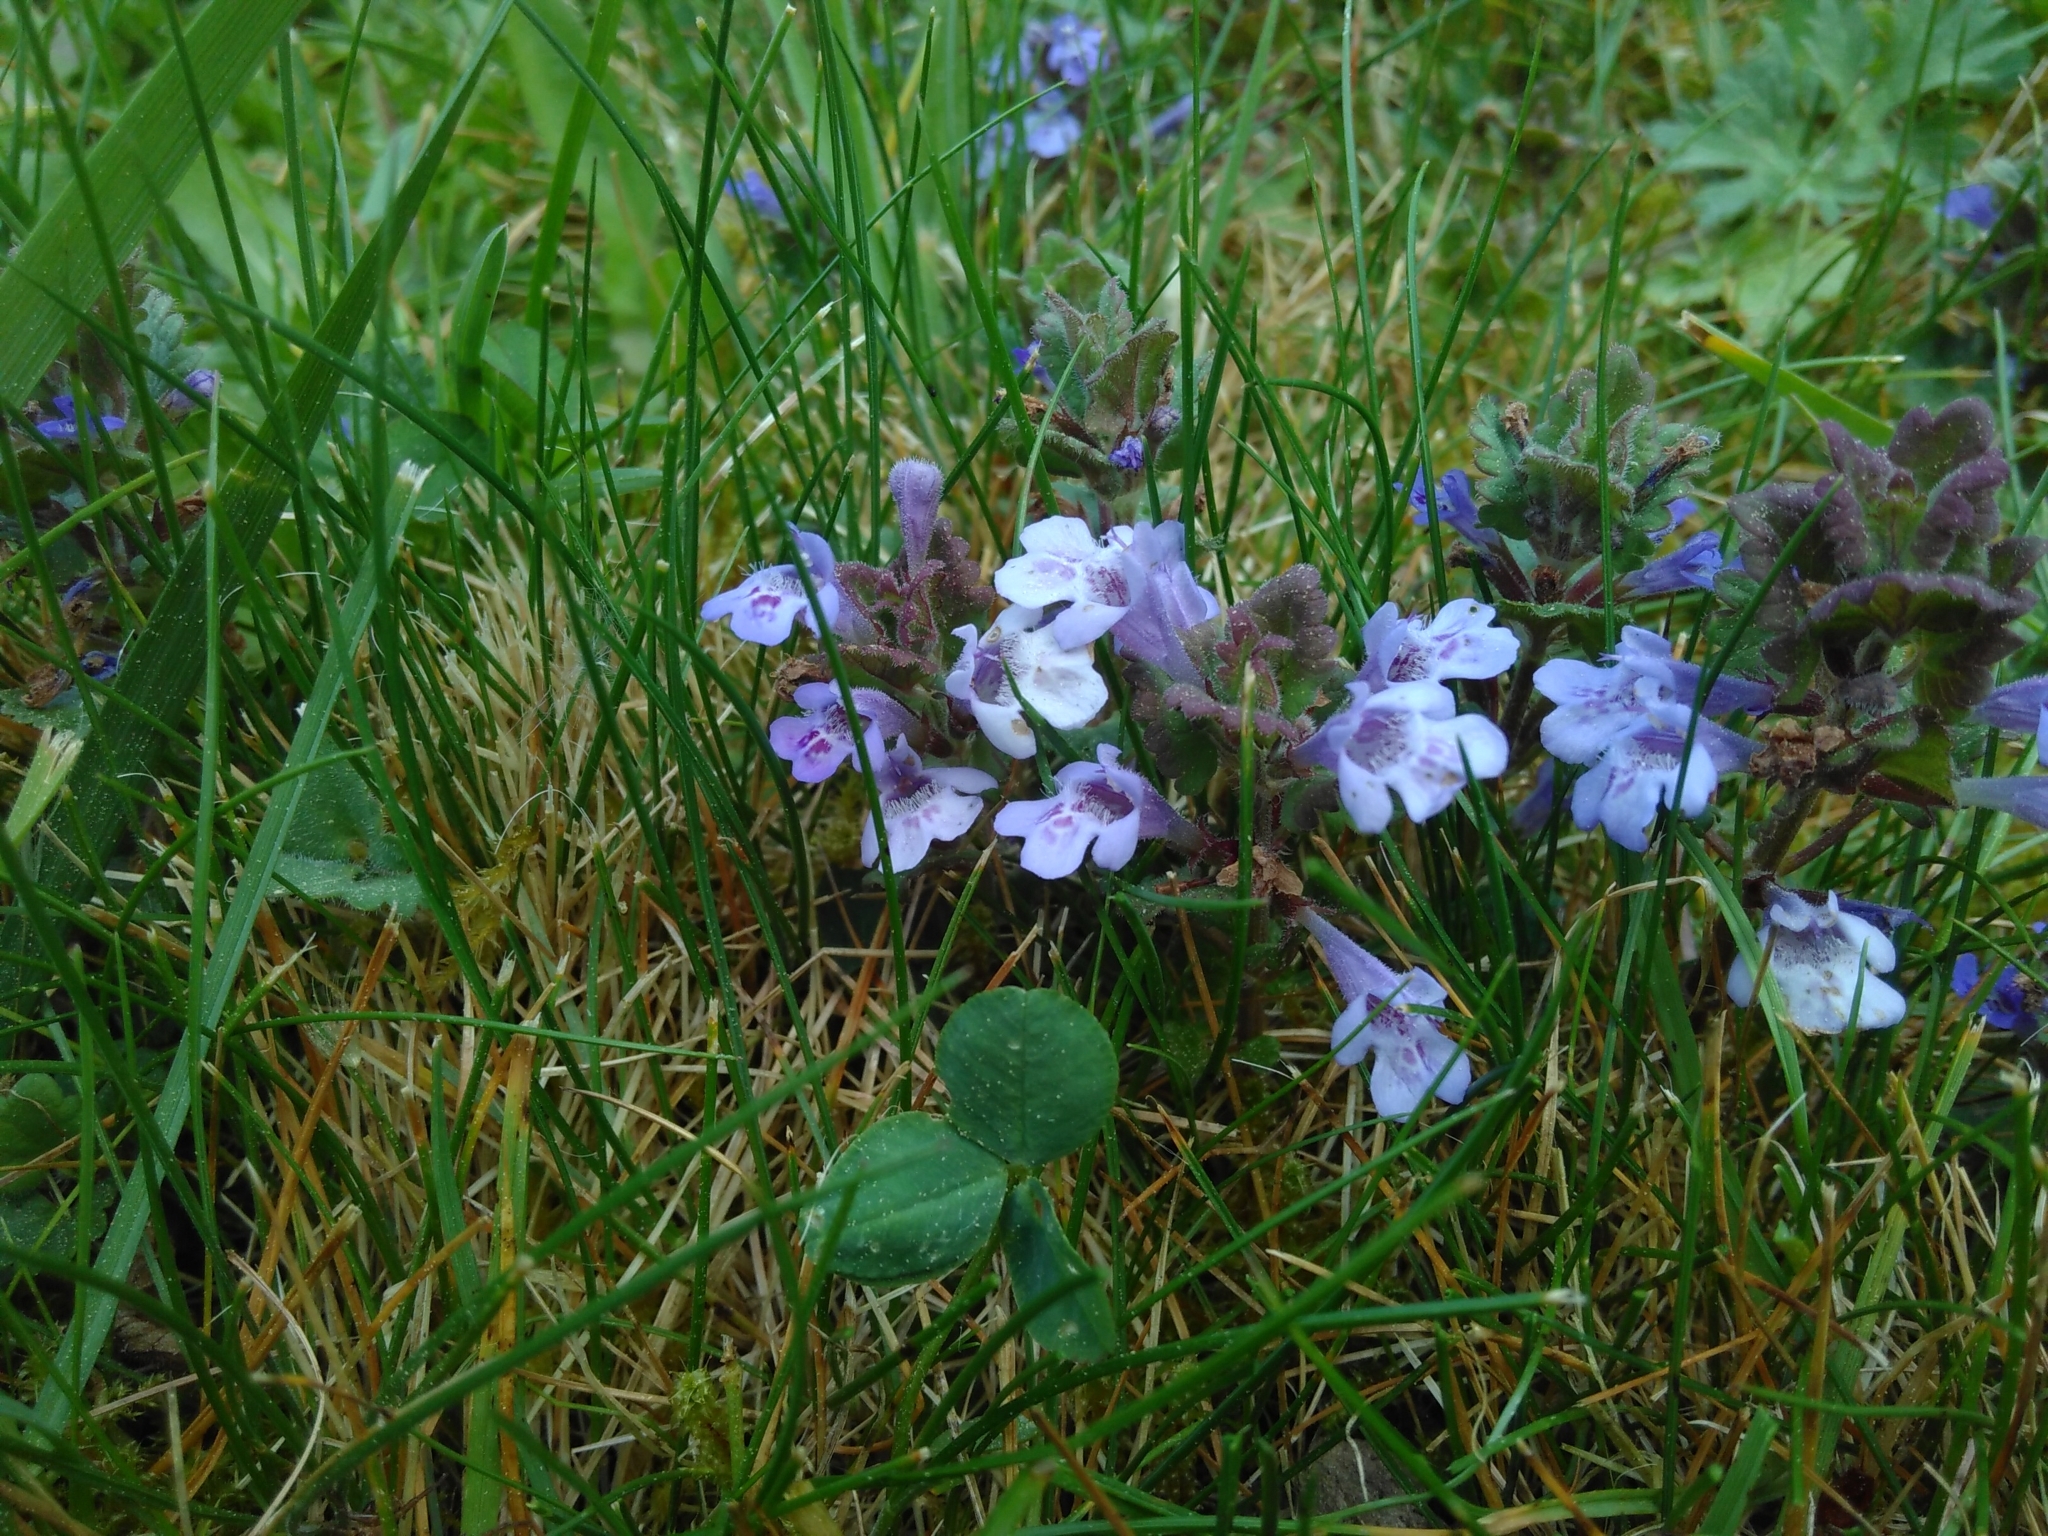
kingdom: Plantae
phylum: Tracheophyta
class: Magnoliopsida
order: Lamiales
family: Lamiaceae
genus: Glechoma
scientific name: Glechoma hederacea
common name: Ground ivy
